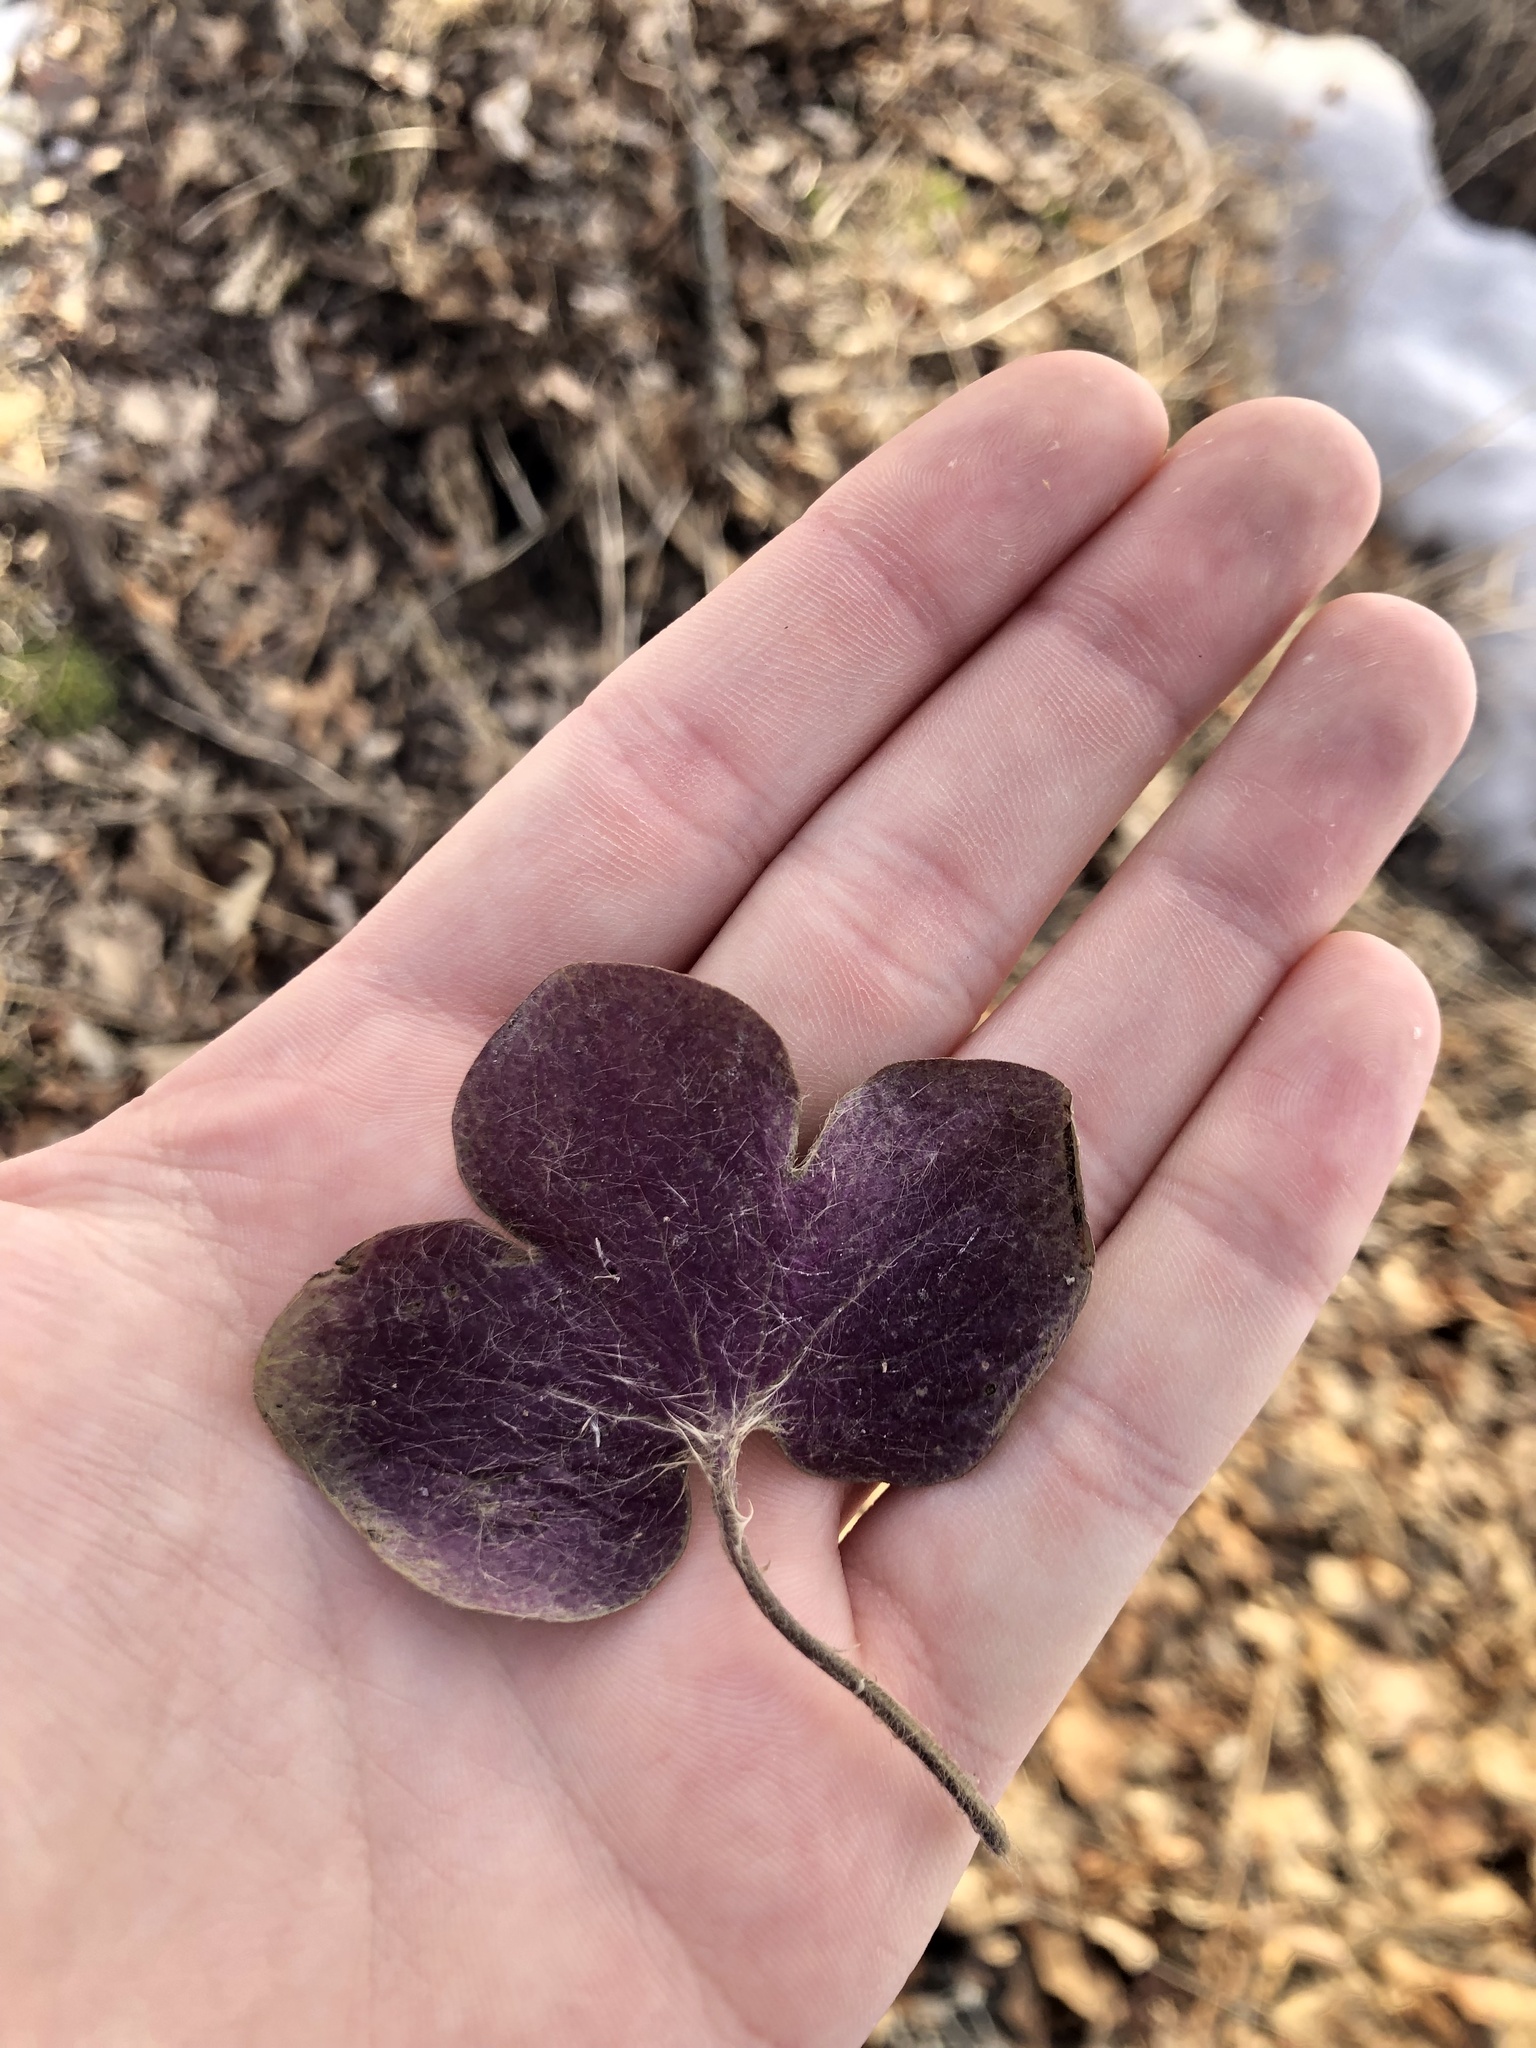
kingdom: Plantae
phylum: Tracheophyta
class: Magnoliopsida
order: Ranunculales
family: Ranunculaceae
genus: Hepatica
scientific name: Hepatica americana
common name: American hepatica
